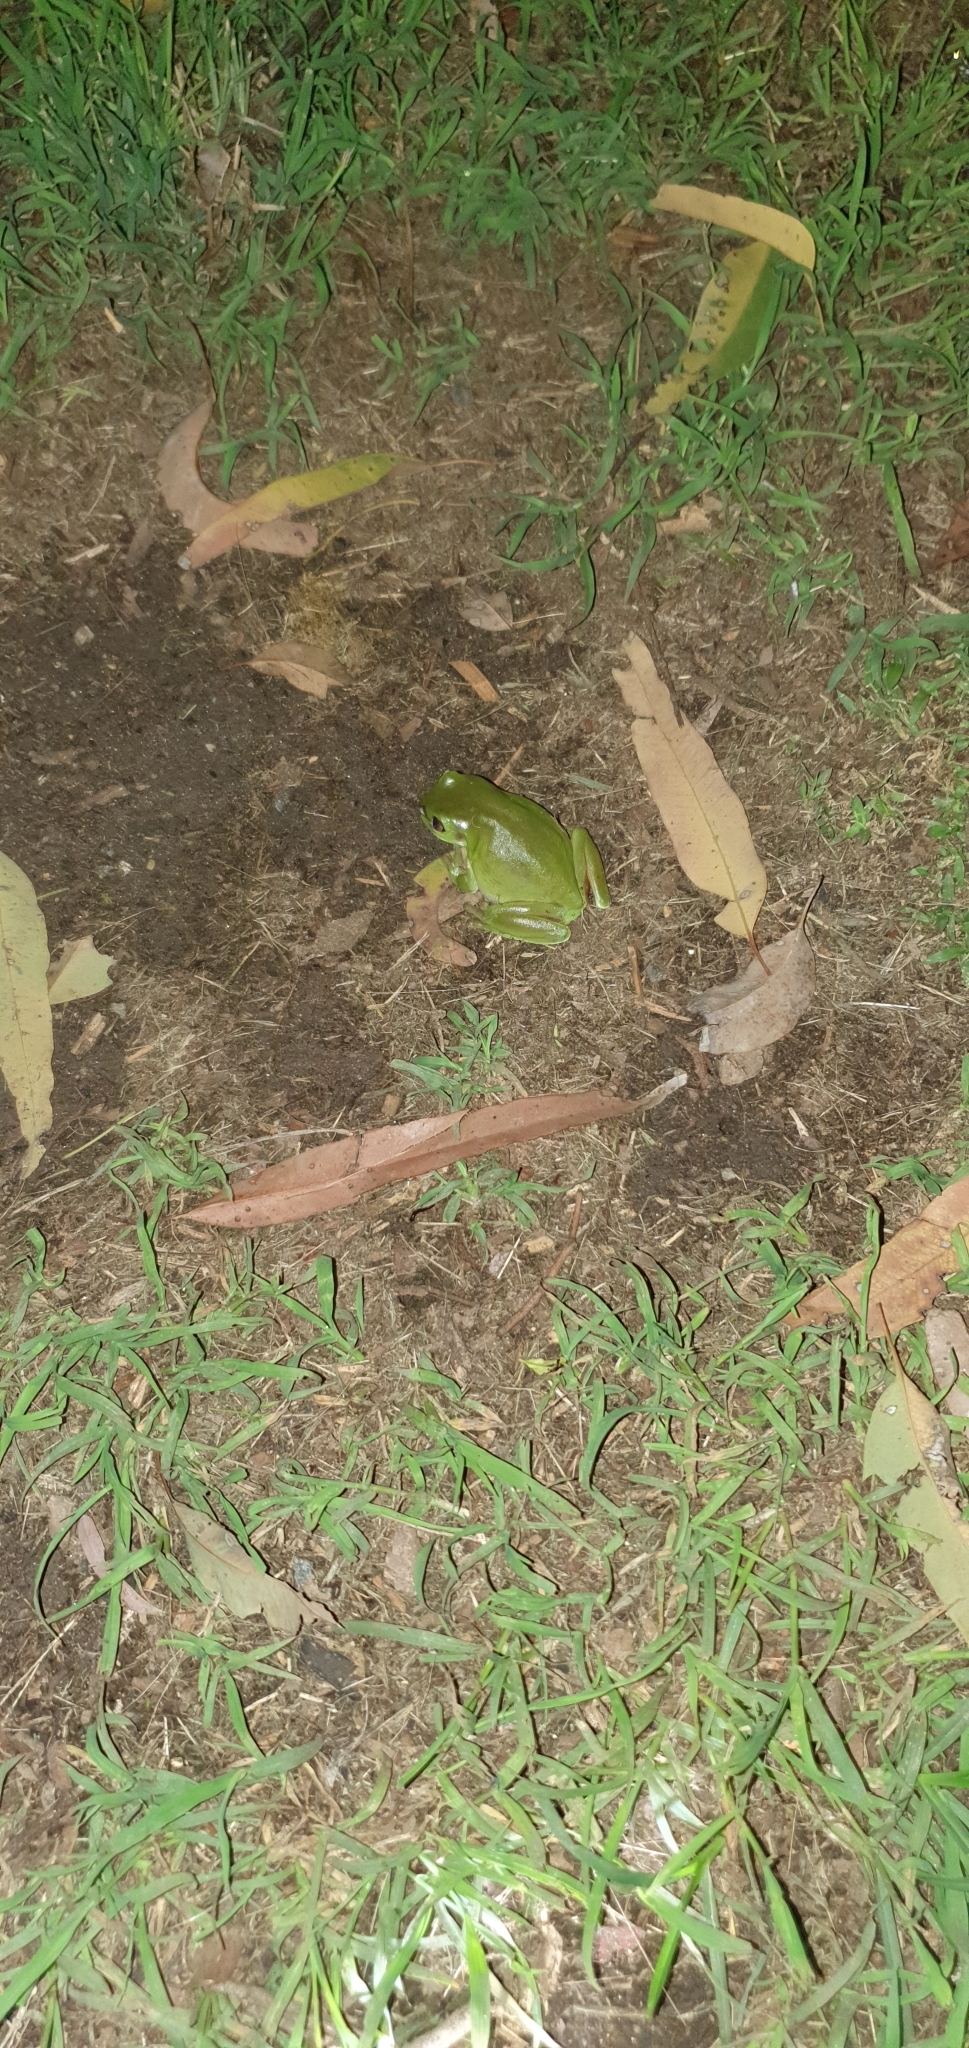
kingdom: Animalia
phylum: Chordata
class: Amphibia
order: Anura
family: Pelodryadidae
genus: Ranoidea
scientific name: Ranoidea caerulea
